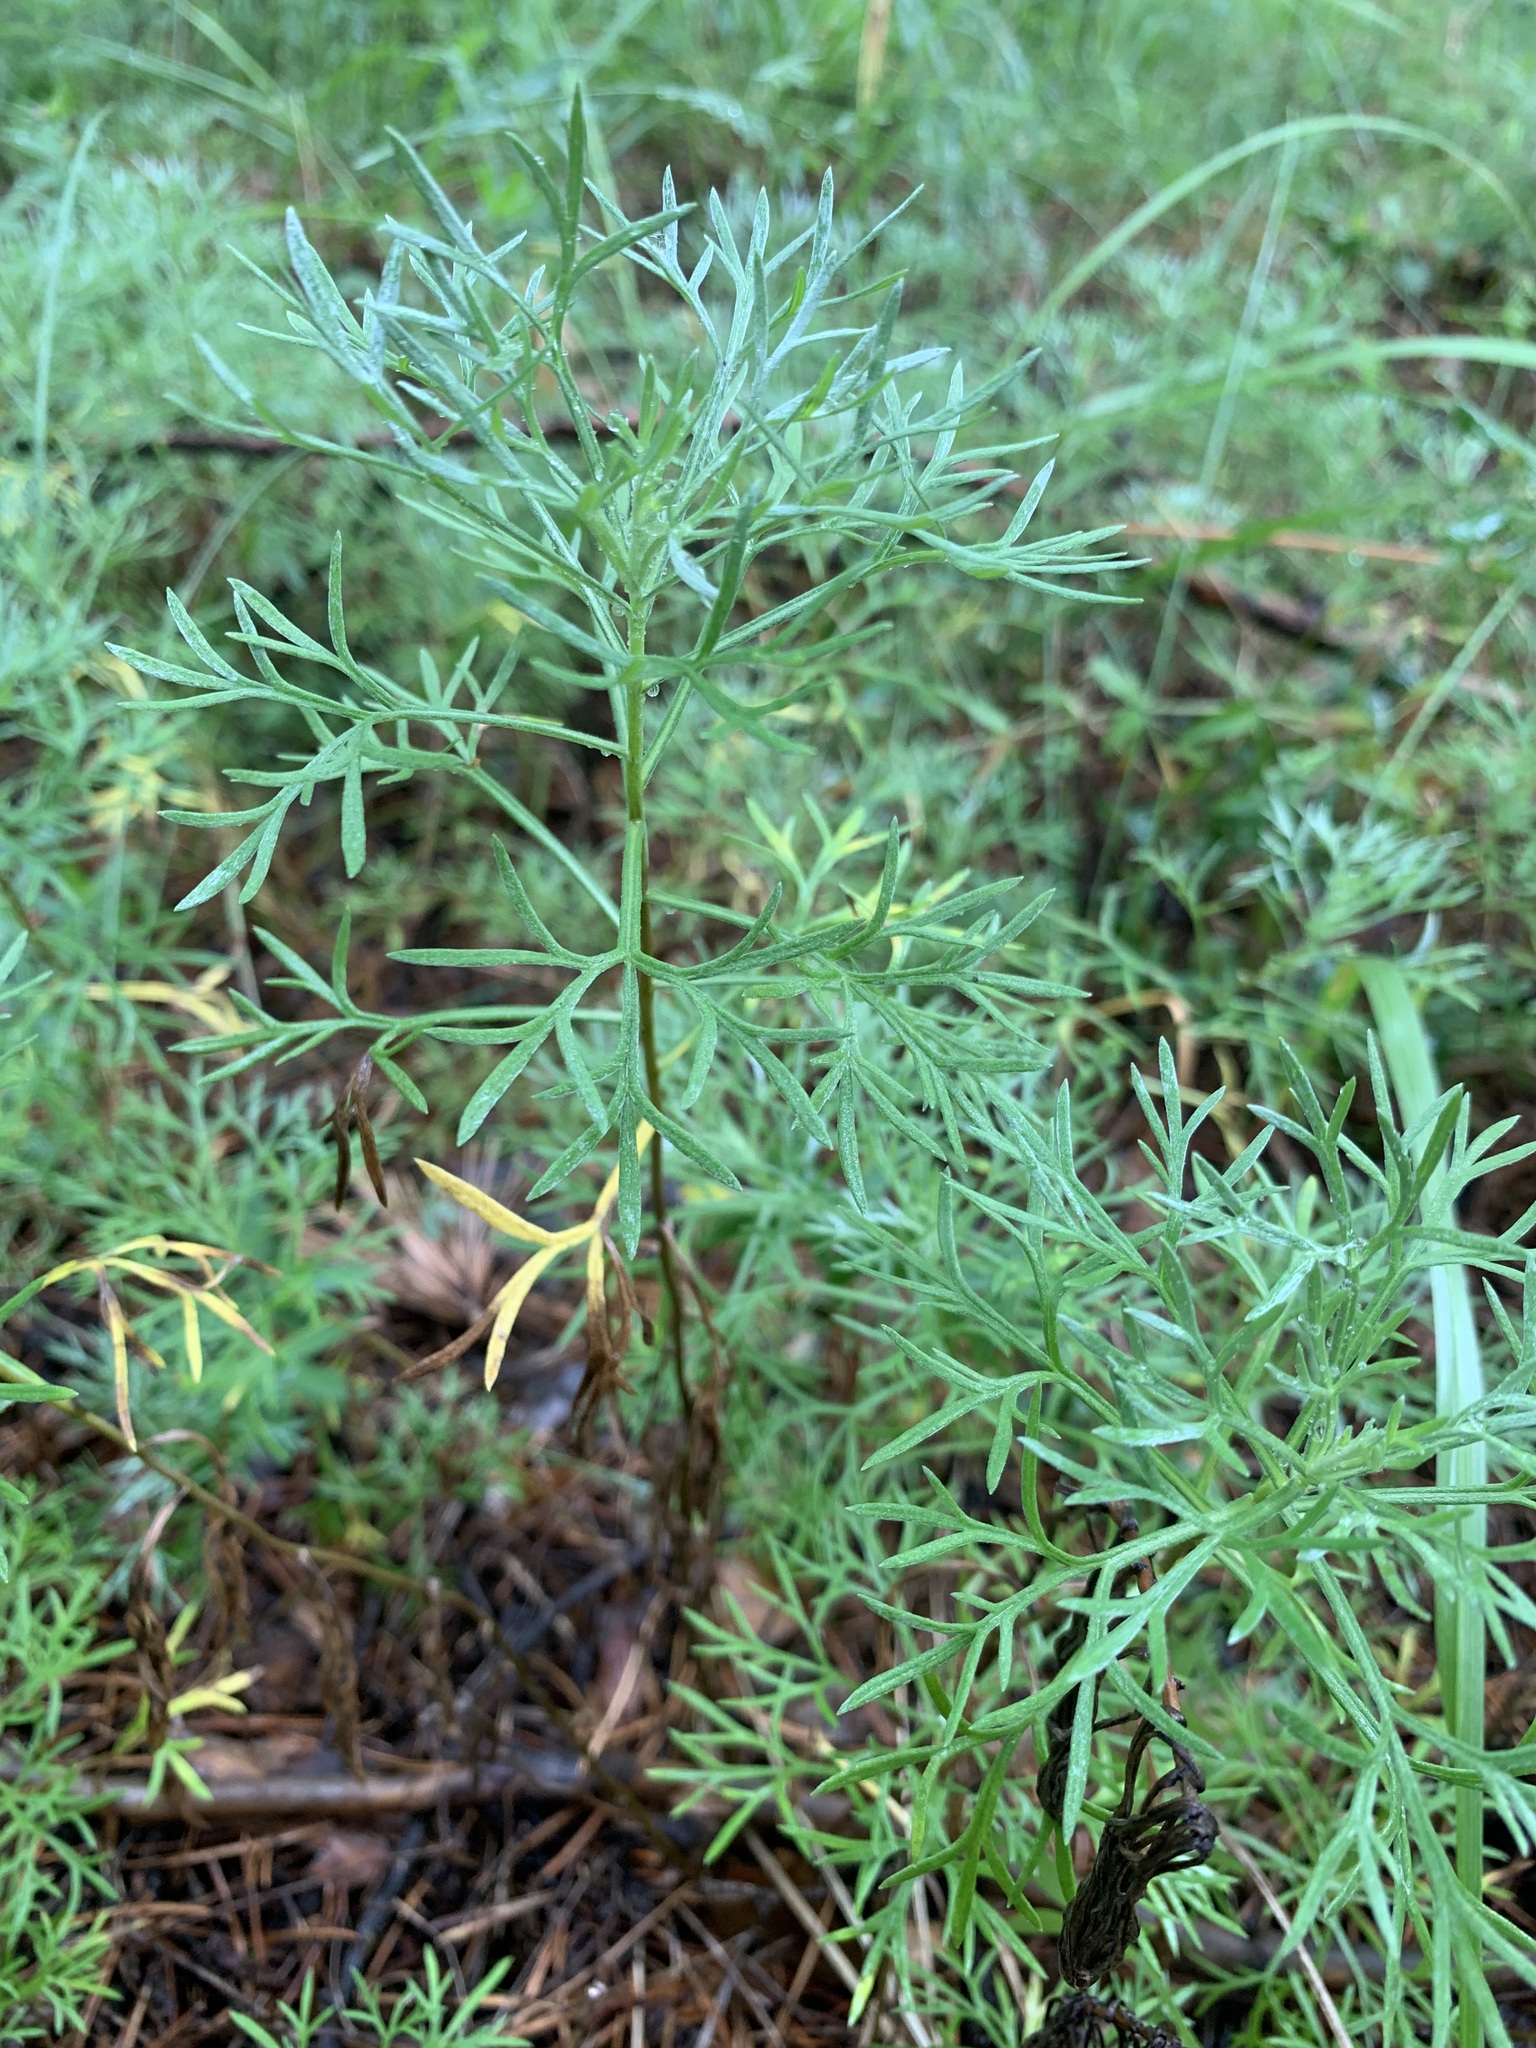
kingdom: Plantae
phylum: Tracheophyta
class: Magnoliopsida
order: Asterales
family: Asteraceae
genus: Artemisia
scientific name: Artemisia sericea
